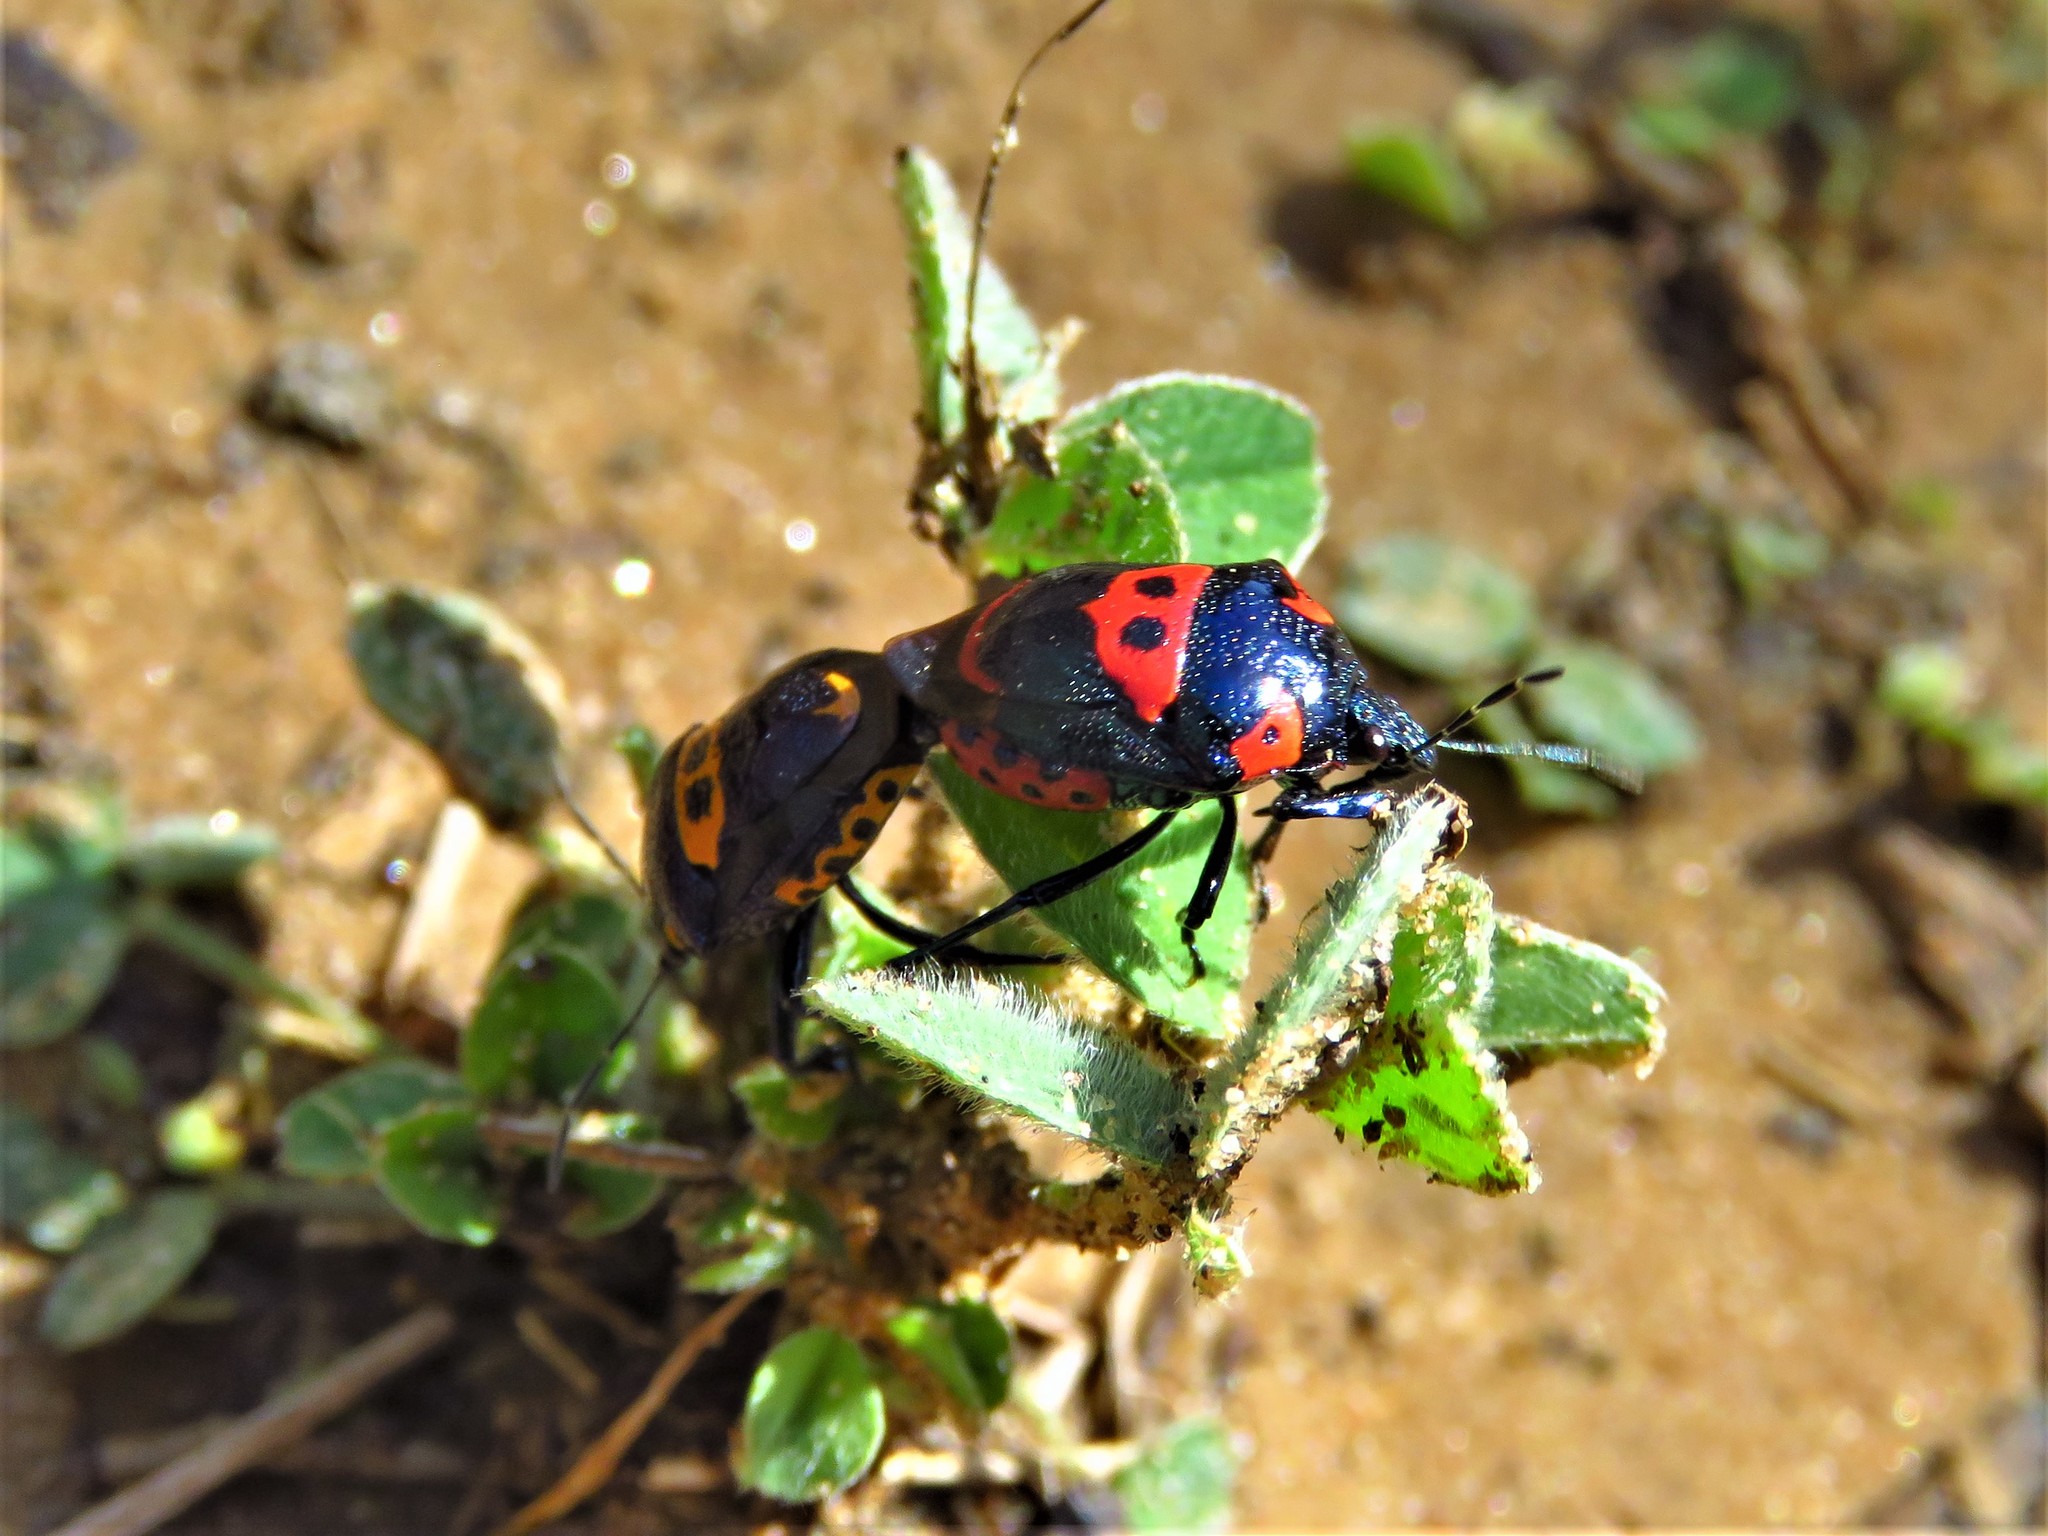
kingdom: Animalia
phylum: Arthropoda
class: Insecta
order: Hemiptera
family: Pentatomidae
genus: Stiretrus
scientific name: Stiretrus anchorago
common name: Anchor stink bug
